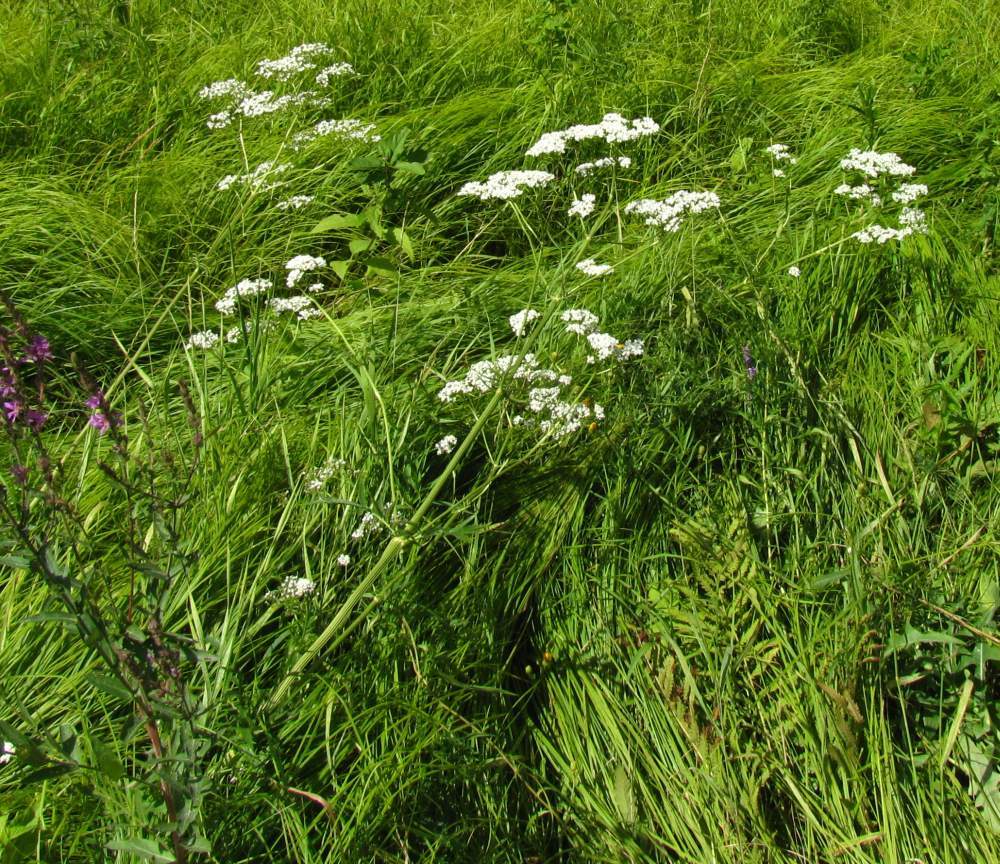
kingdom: Plantae
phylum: Tracheophyta
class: Magnoliopsida
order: Dipsacales
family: Caprifoliaceae
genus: Valeriana
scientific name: Valeriana officinalis
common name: Common valerian
